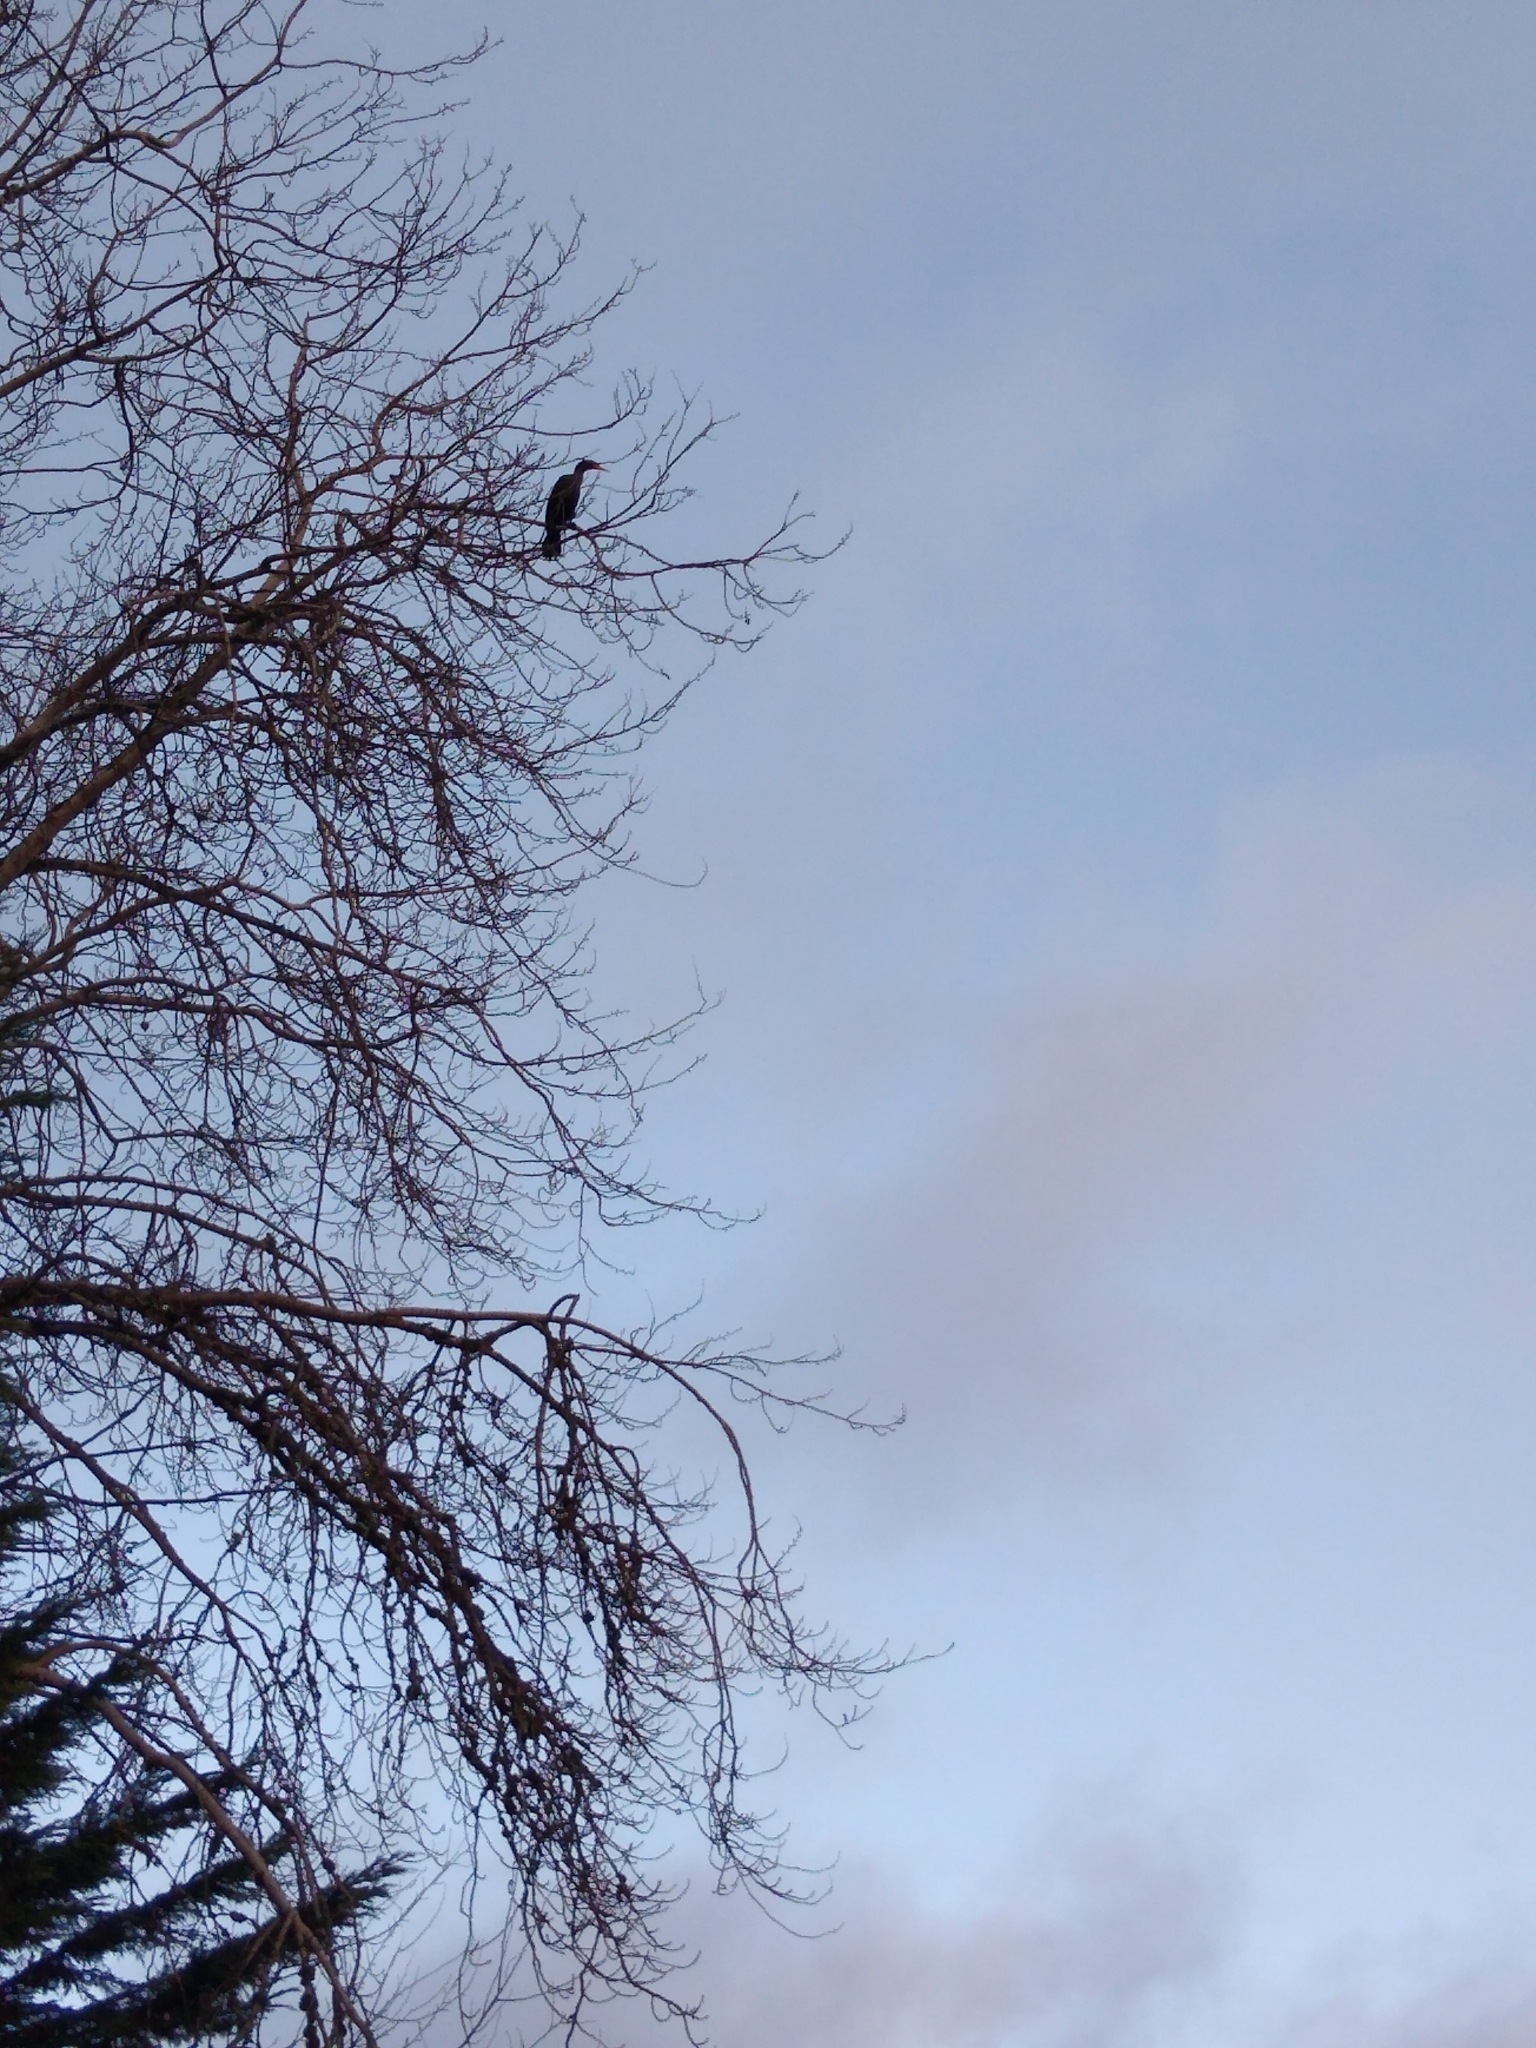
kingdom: Animalia
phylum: Chordata
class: Aves
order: Suliformes
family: Phalacrocoracidae
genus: Phalacrocorax
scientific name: Phalacrocorax auritus
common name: Double-crested cormorant
